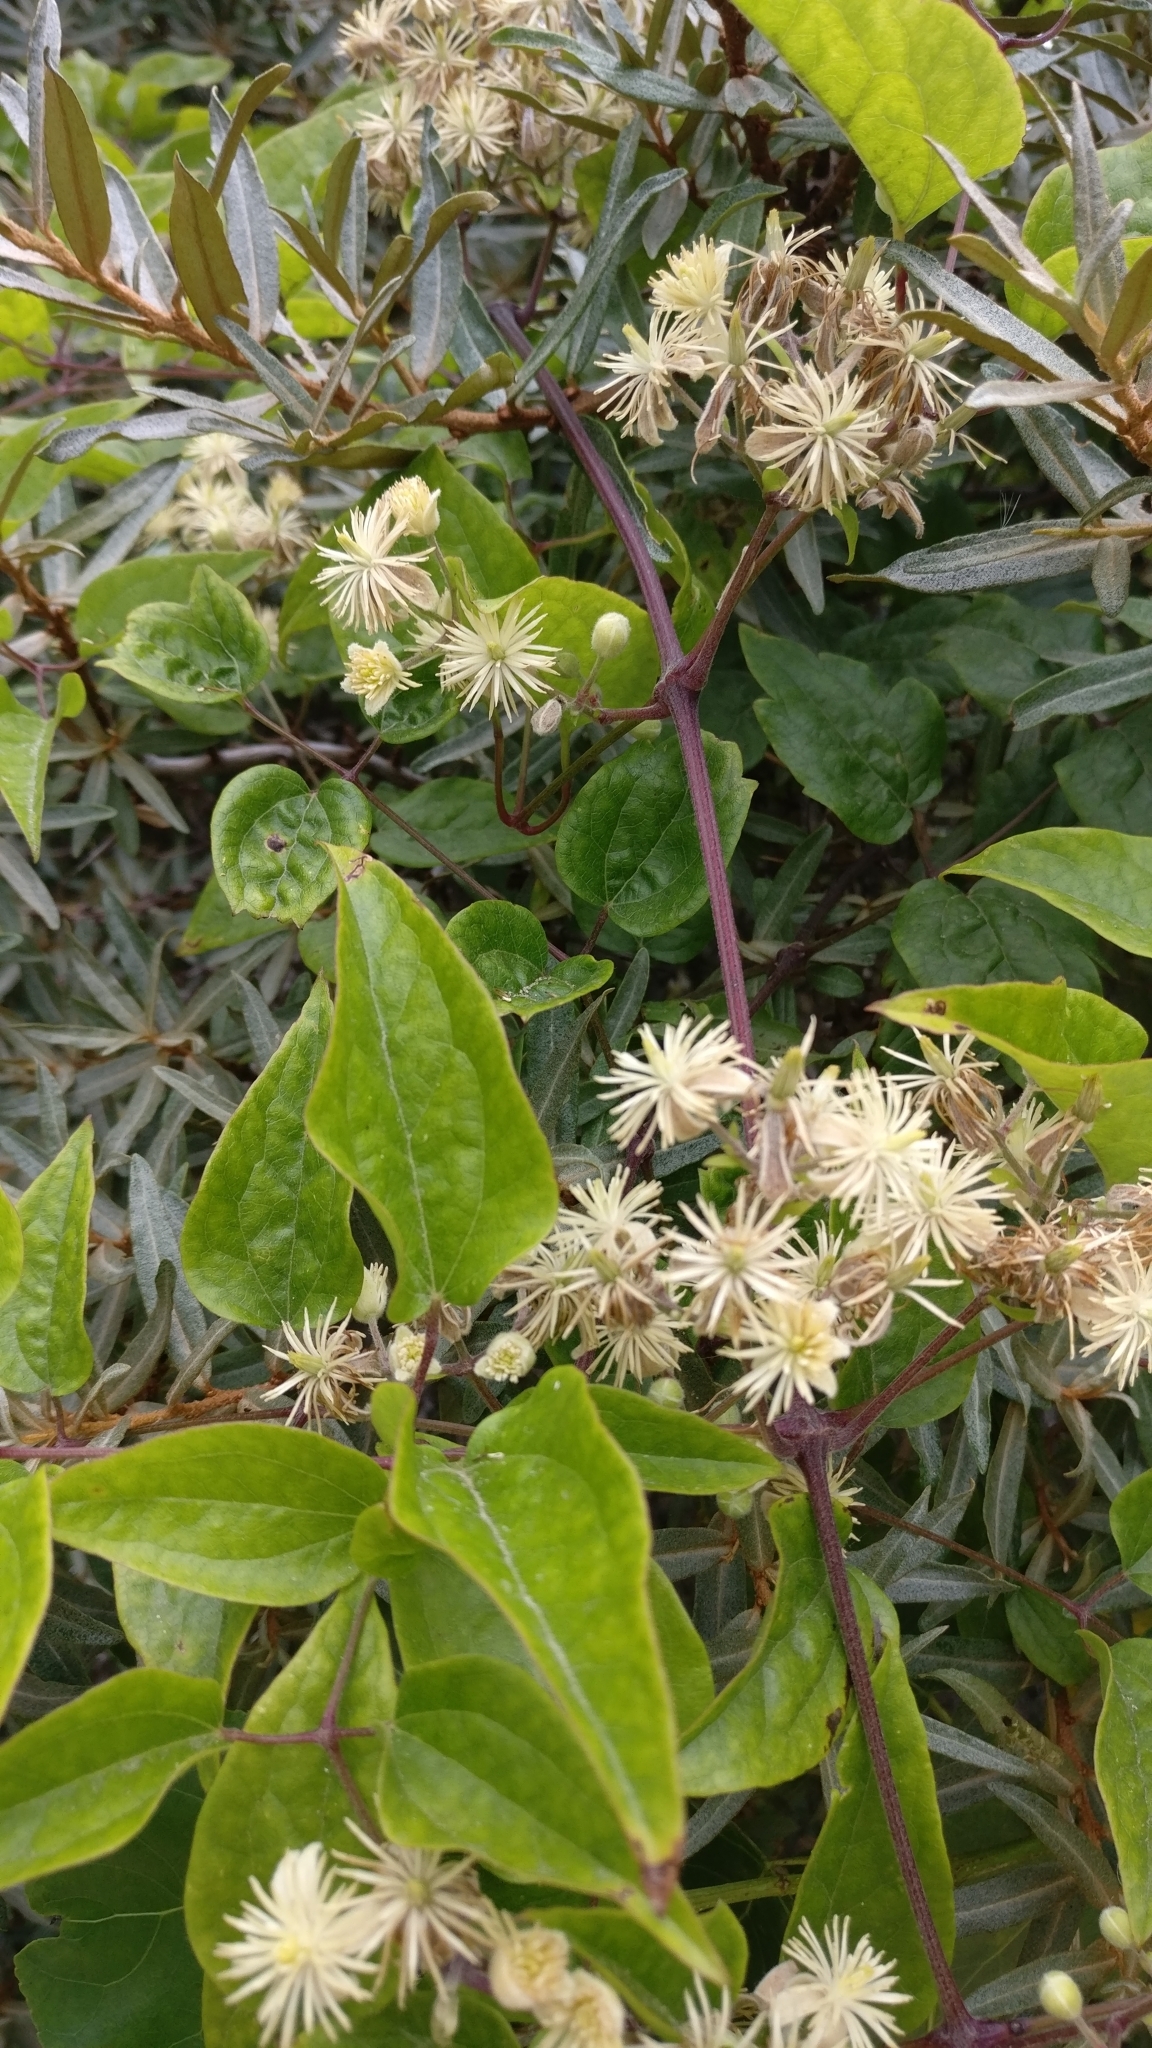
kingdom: Plantae
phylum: Tracheophyta
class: Magnoliopsida
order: Ranunculales
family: Ranunculaceae
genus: Clematis
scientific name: Clematis vitalba
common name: Evergreen clematis
